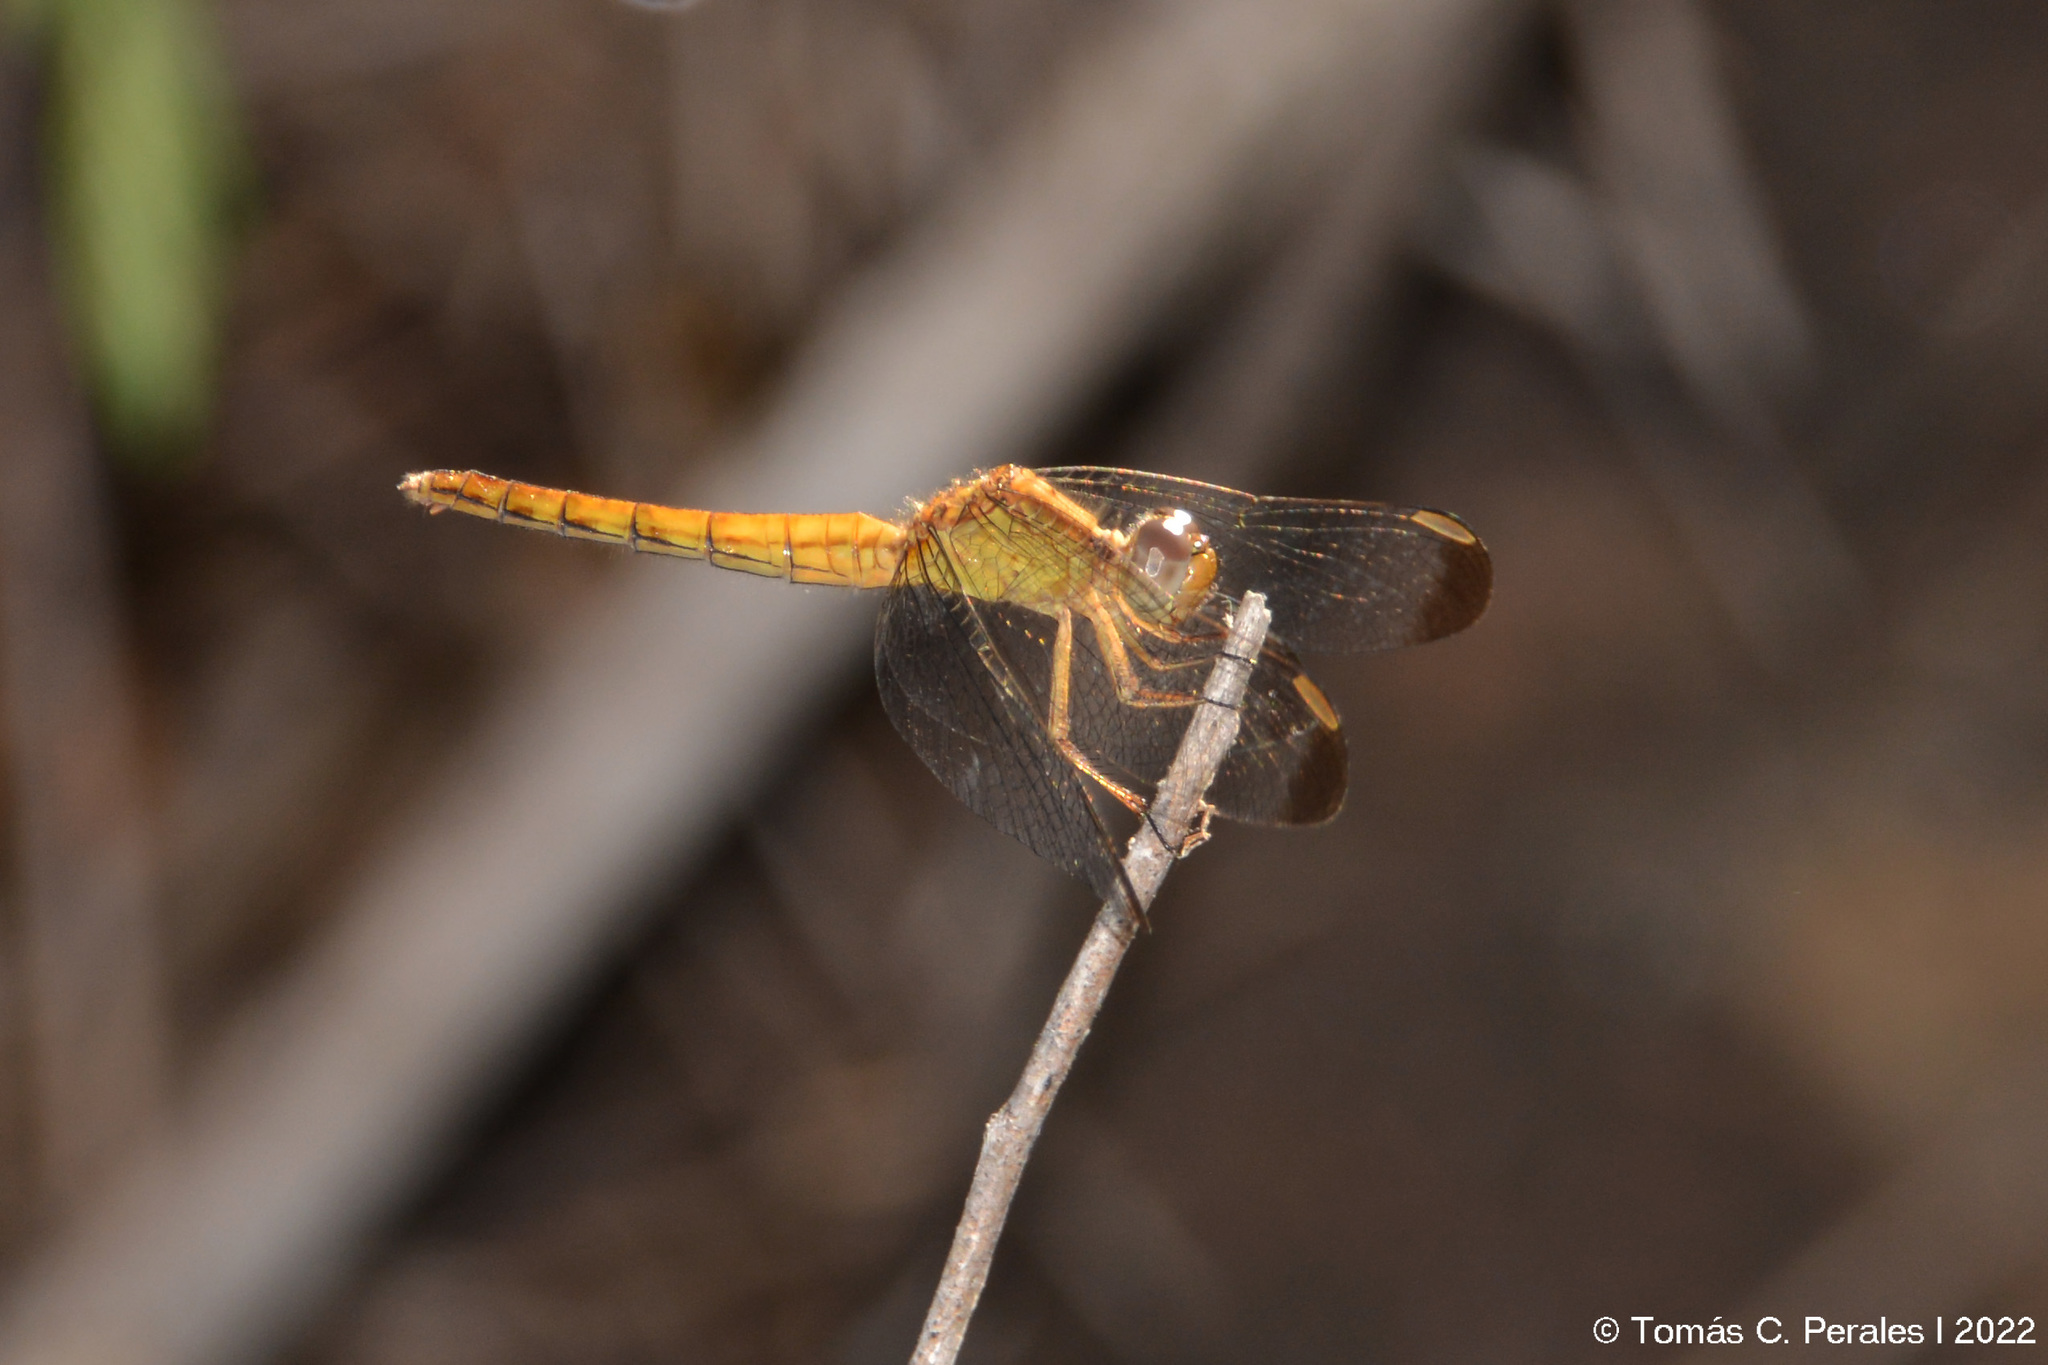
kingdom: Animalia
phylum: Arthropoda
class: Insecta
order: Odonata
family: Libellulidae
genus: Erythrodiplax
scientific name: Erythrodiplax atroterminata
